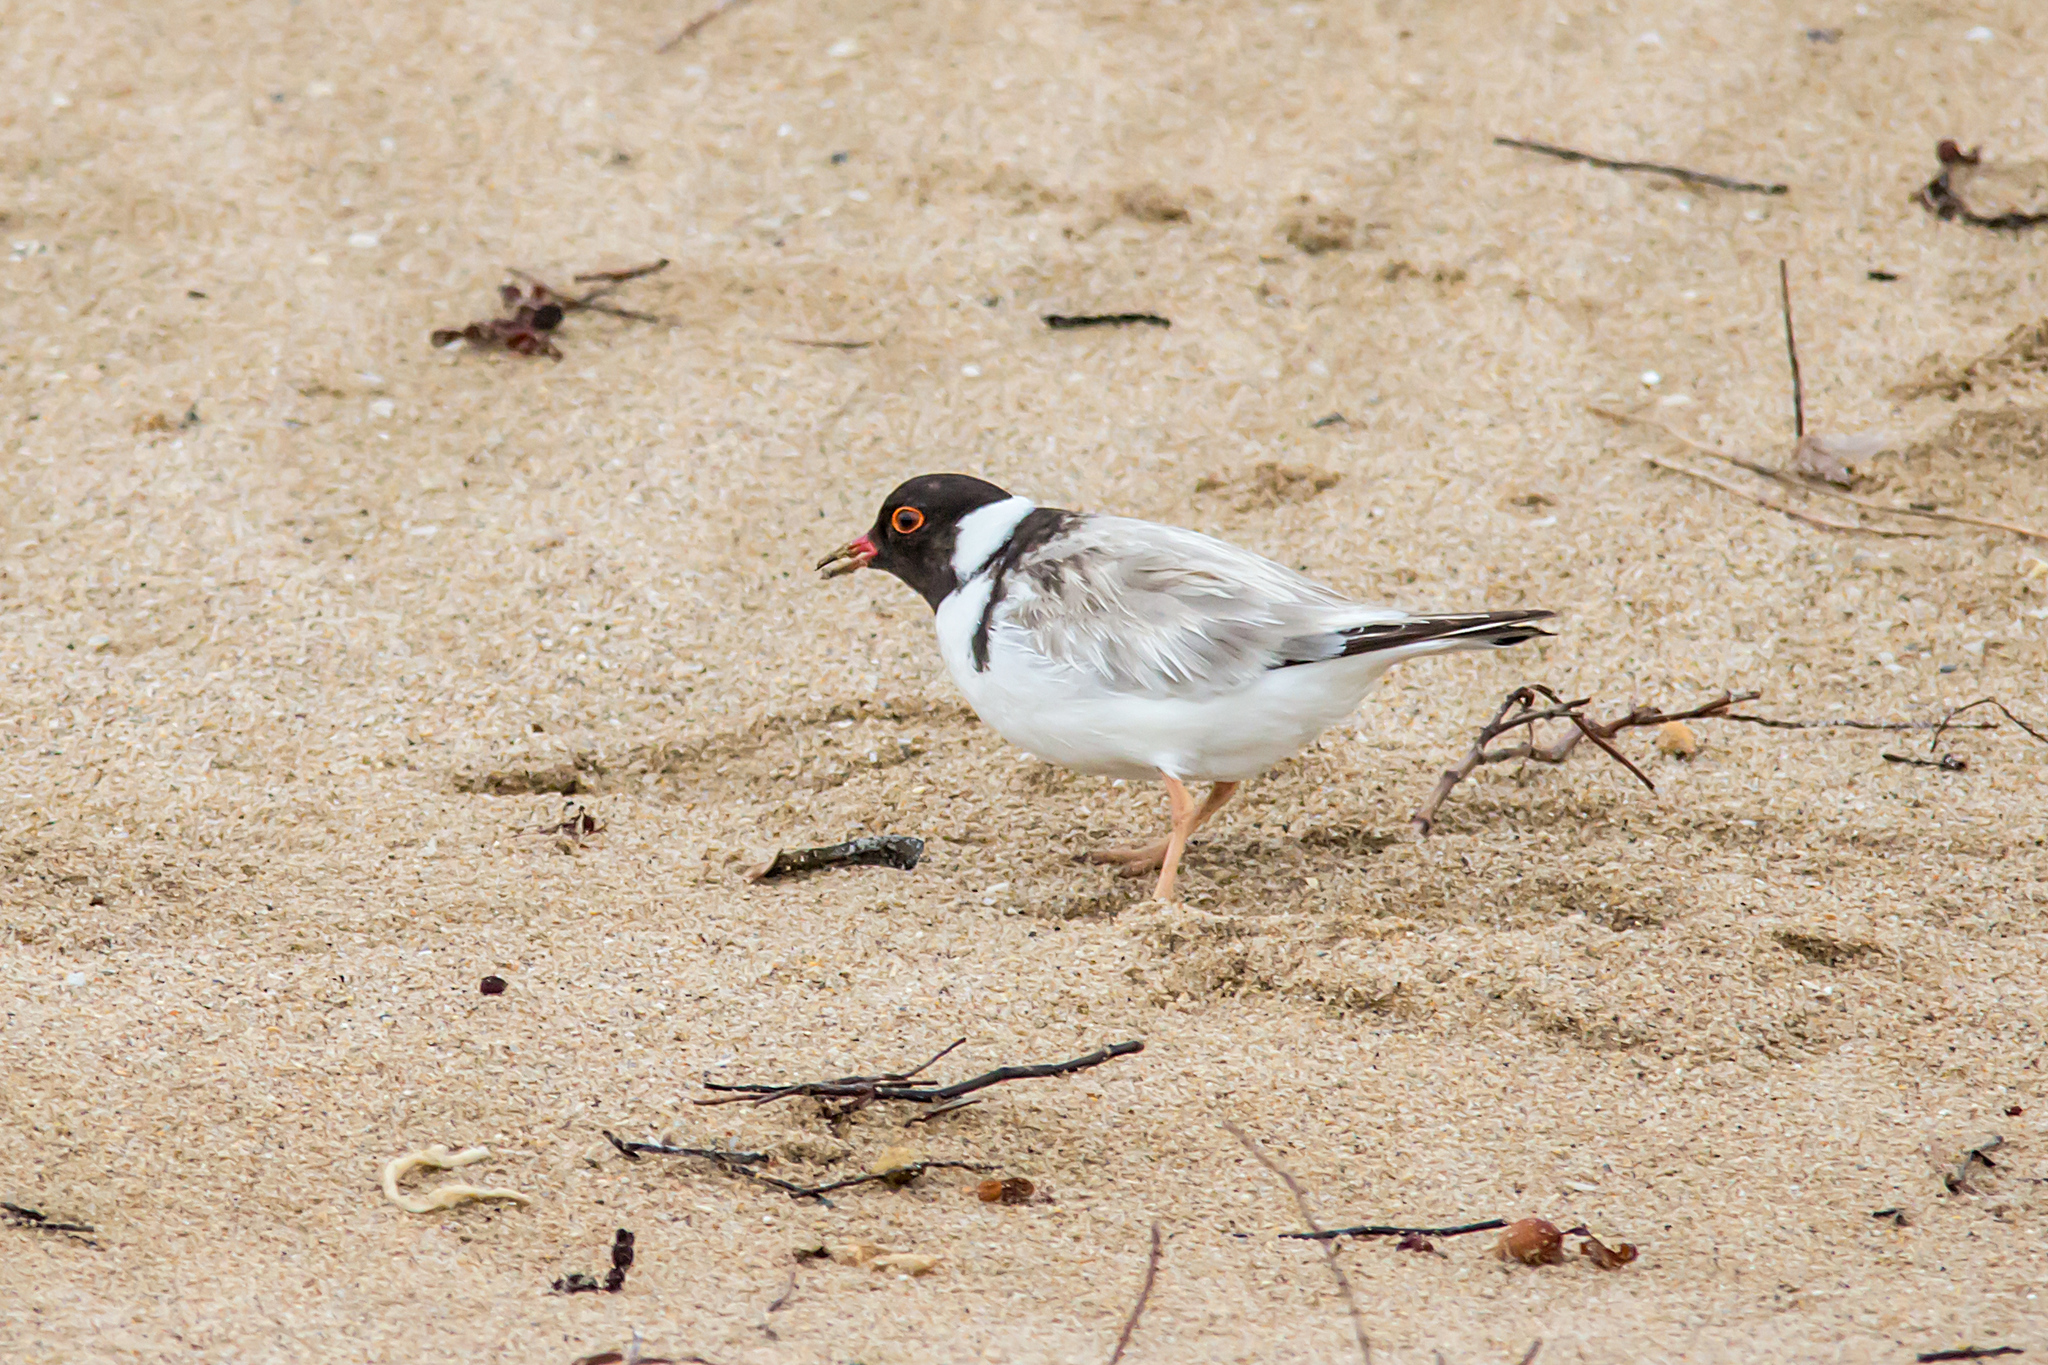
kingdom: Animalia
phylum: Chordata
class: Aves
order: Charadriiformes
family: Charadriidae
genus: Thinornis
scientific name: Thinornis cucullatus
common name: Hooded dotterel
